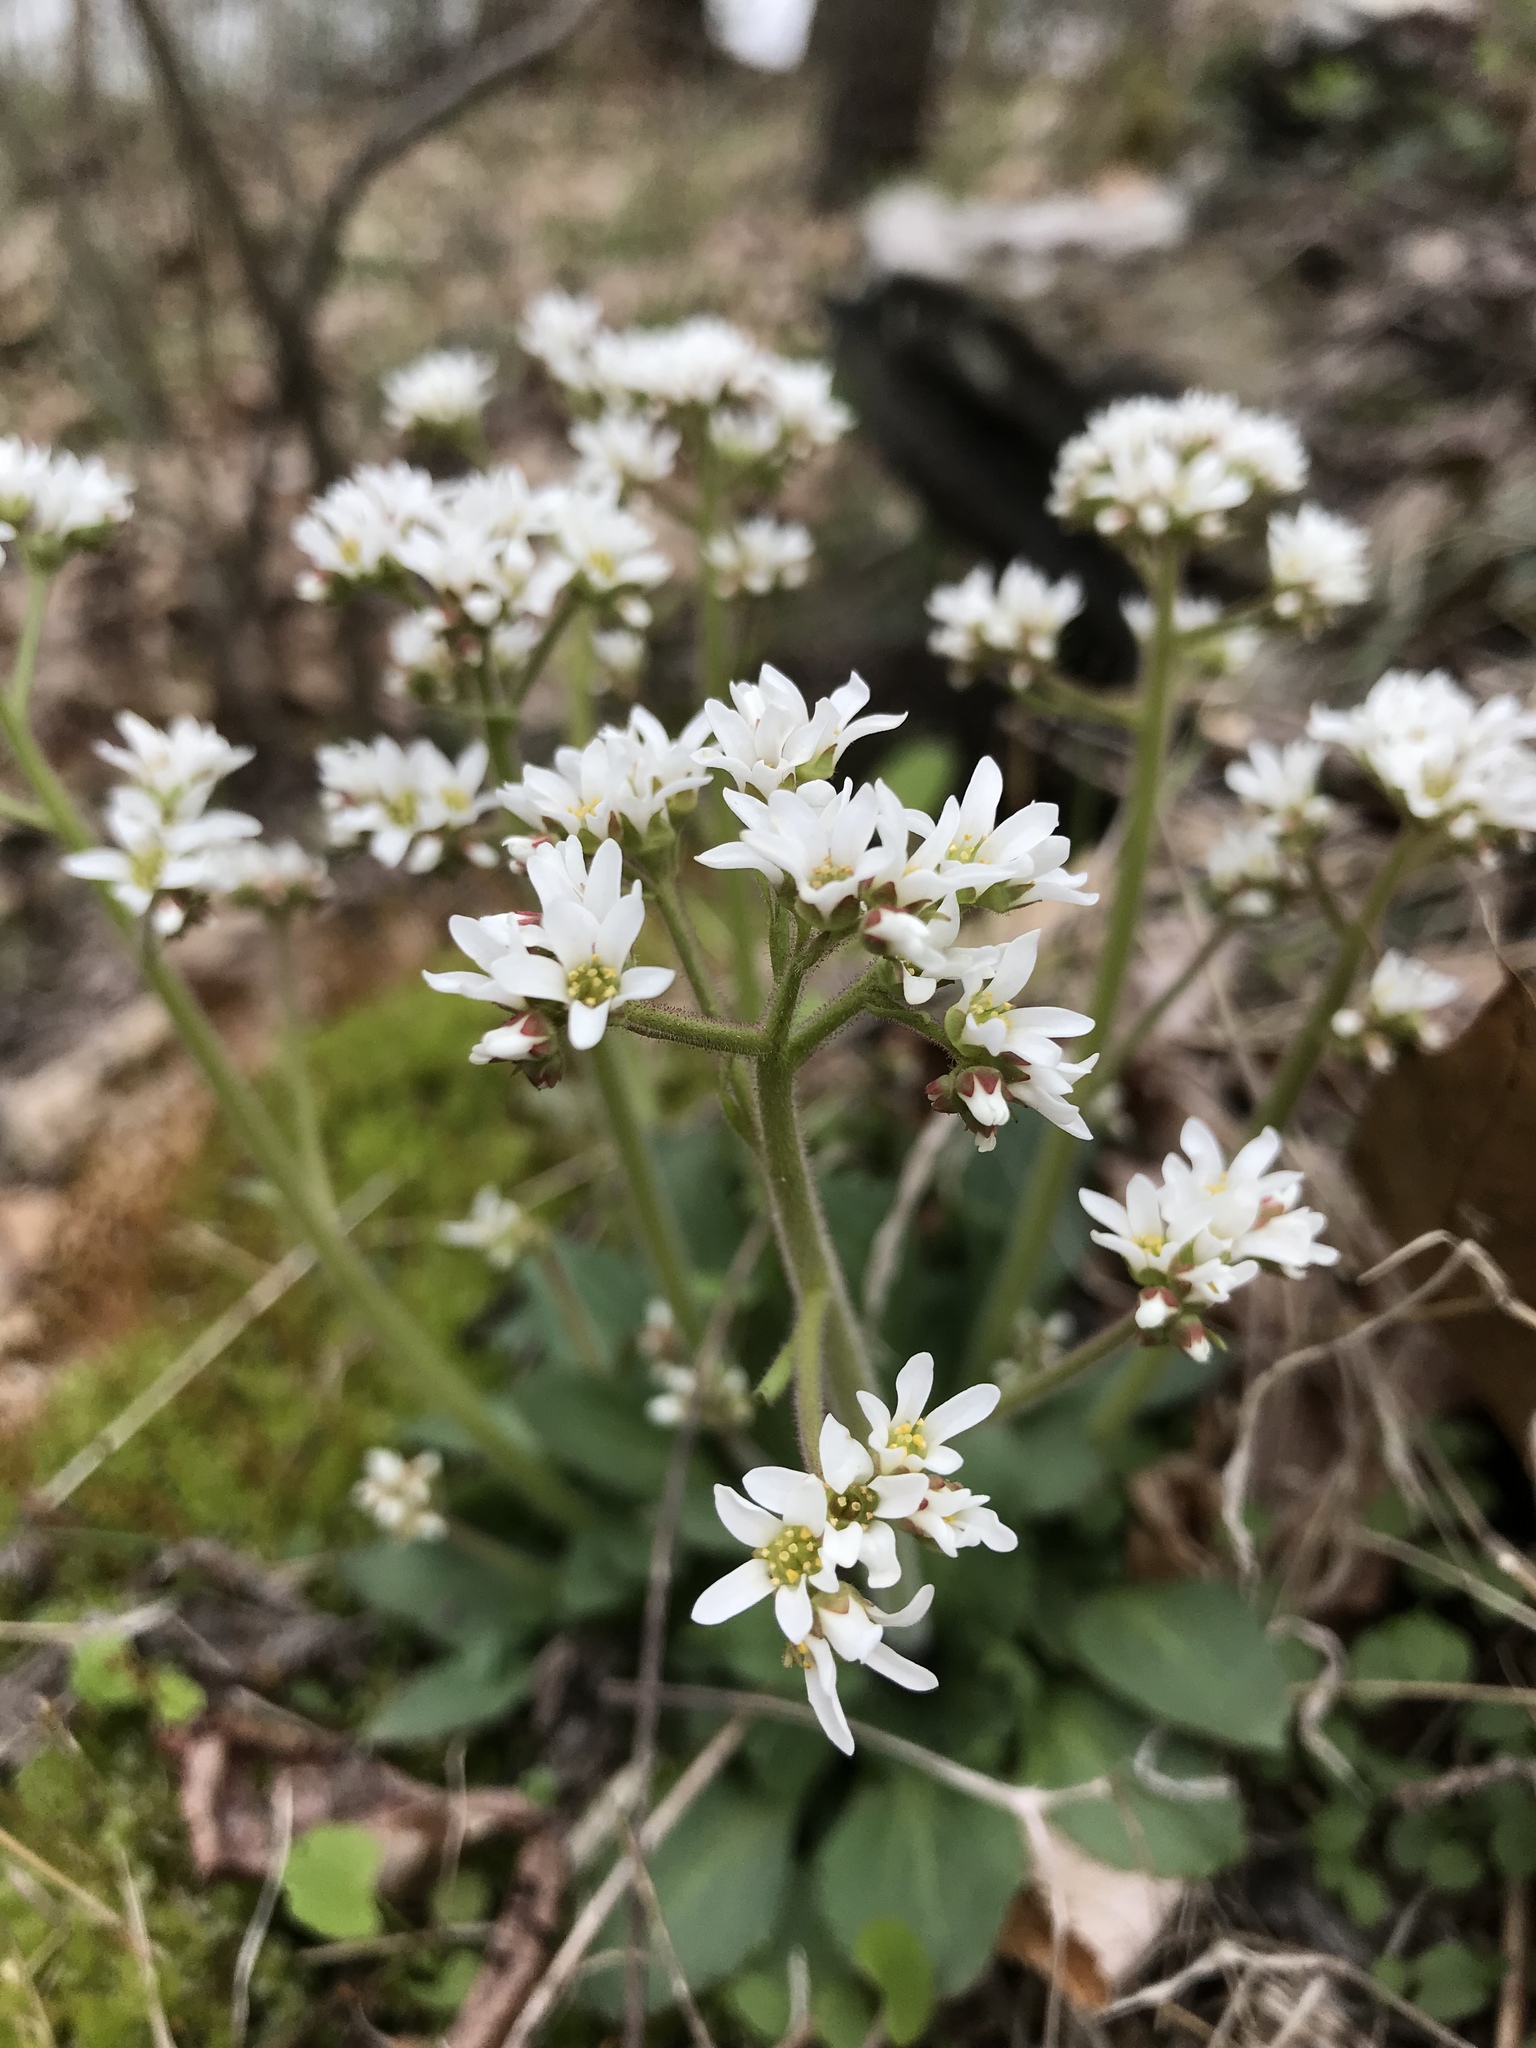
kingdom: Plantae
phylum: Tracheophyta
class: Magnoliopsida
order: Saxifragales
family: Saxifragaceae
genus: Micranthes
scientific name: Micranthes virginiensis
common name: Early saxifrage
